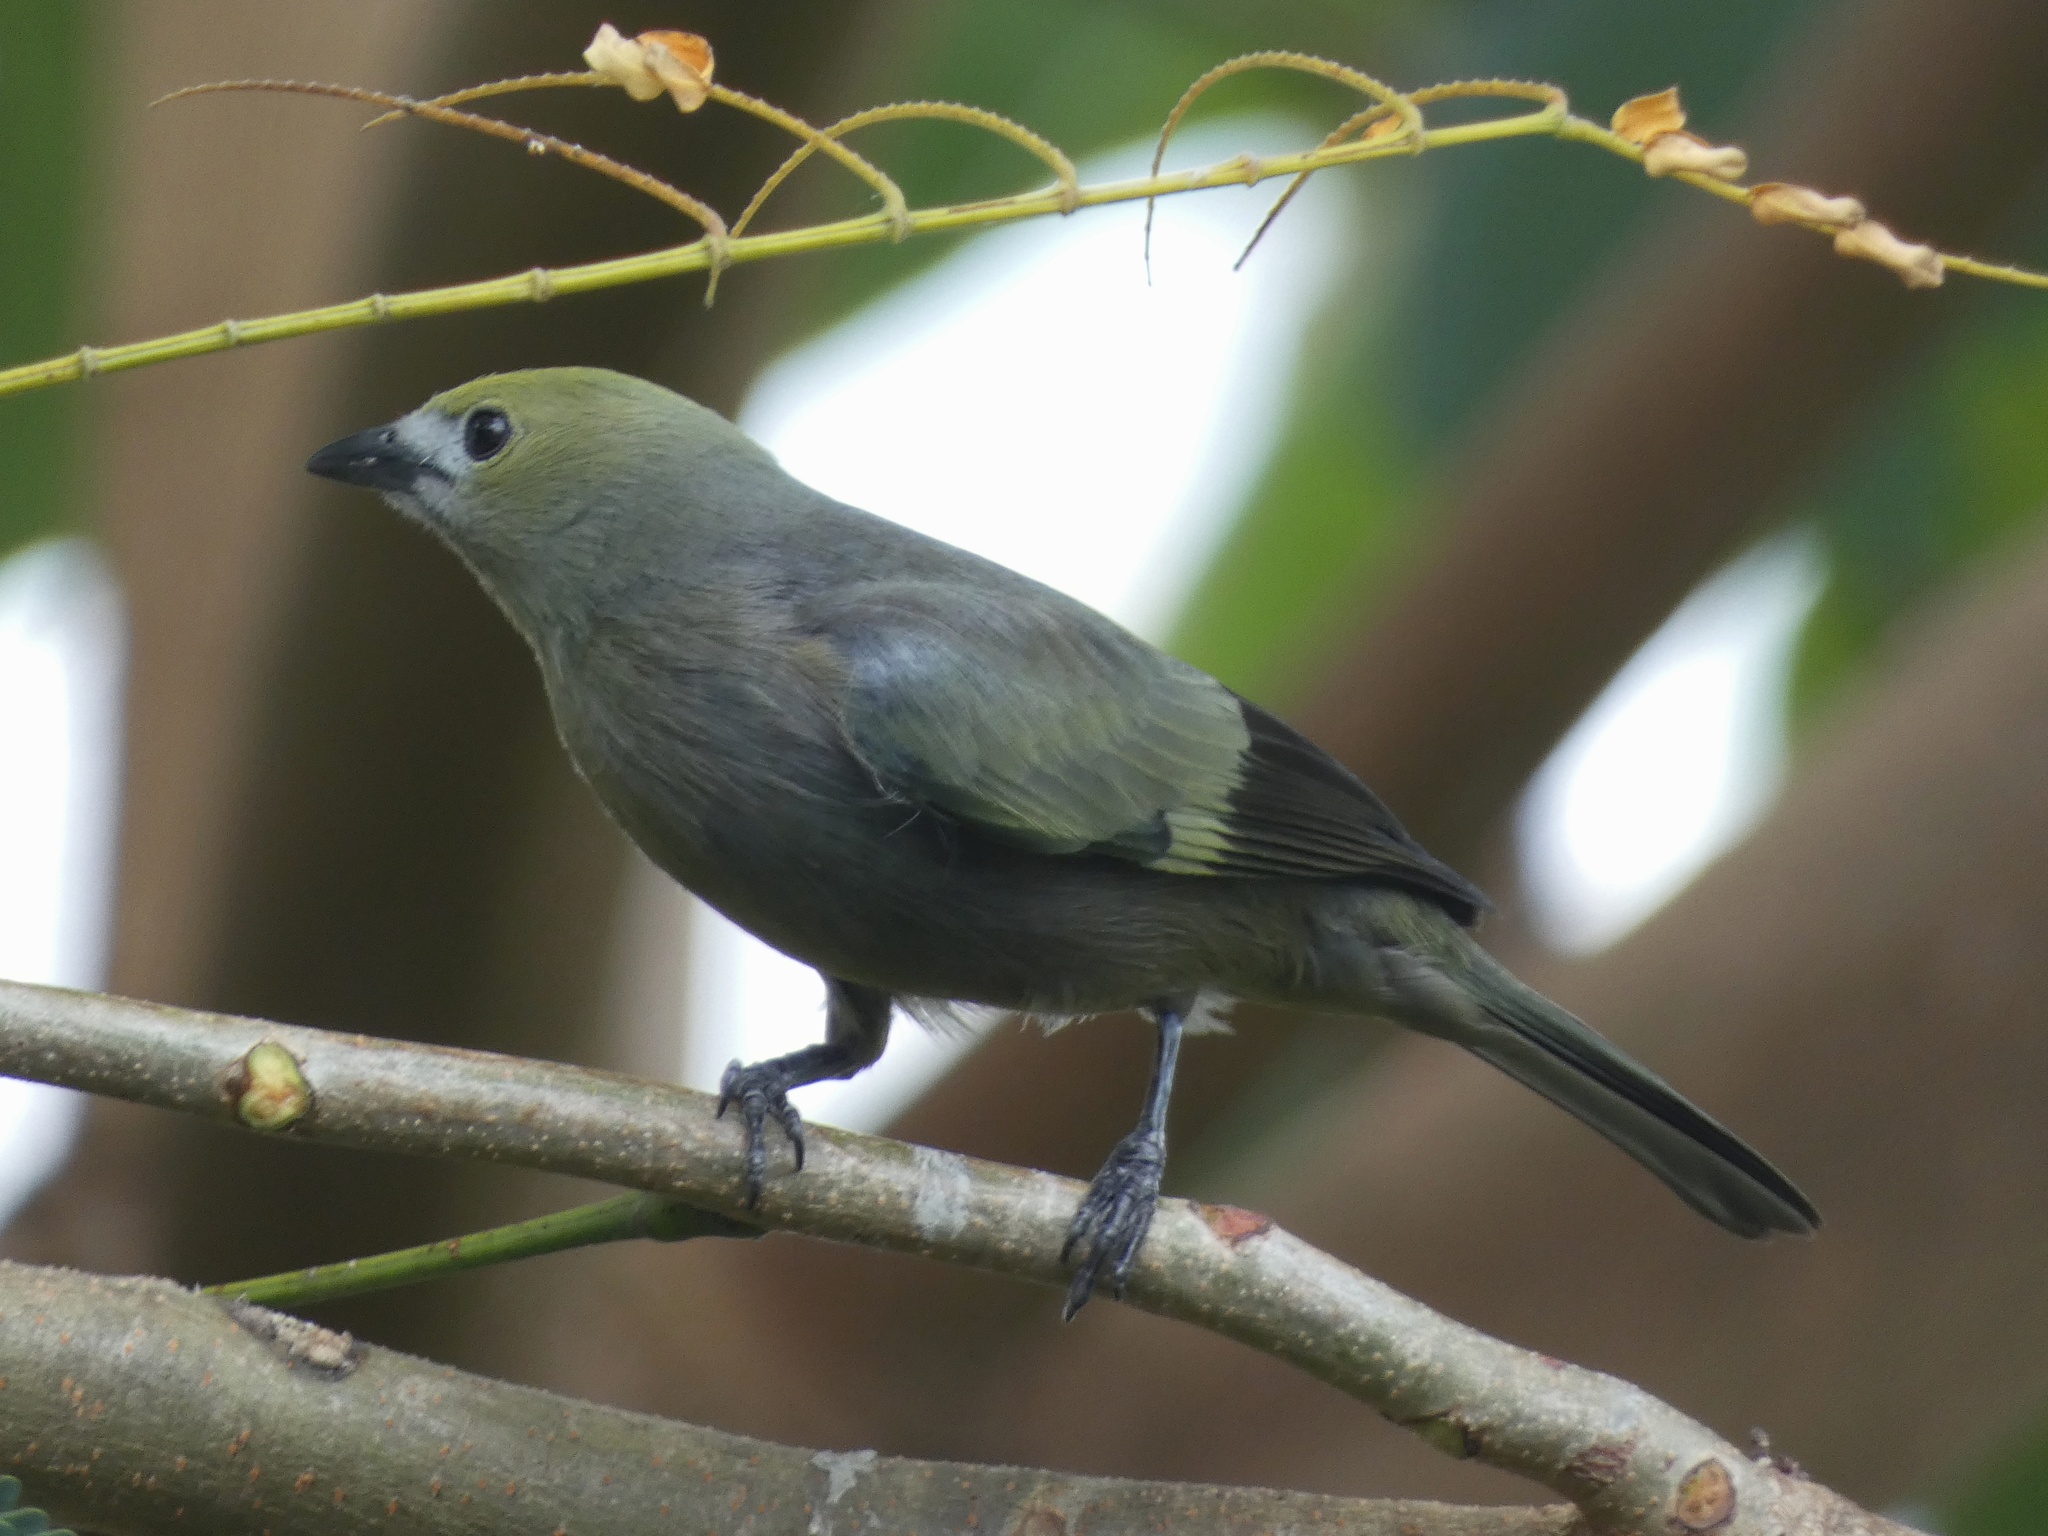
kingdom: Animalia
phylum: Chordata
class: Aves
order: Passeriformes
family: Thraupidae
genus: Thraupis
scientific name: Thraupis palmarum
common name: Palm tanager
